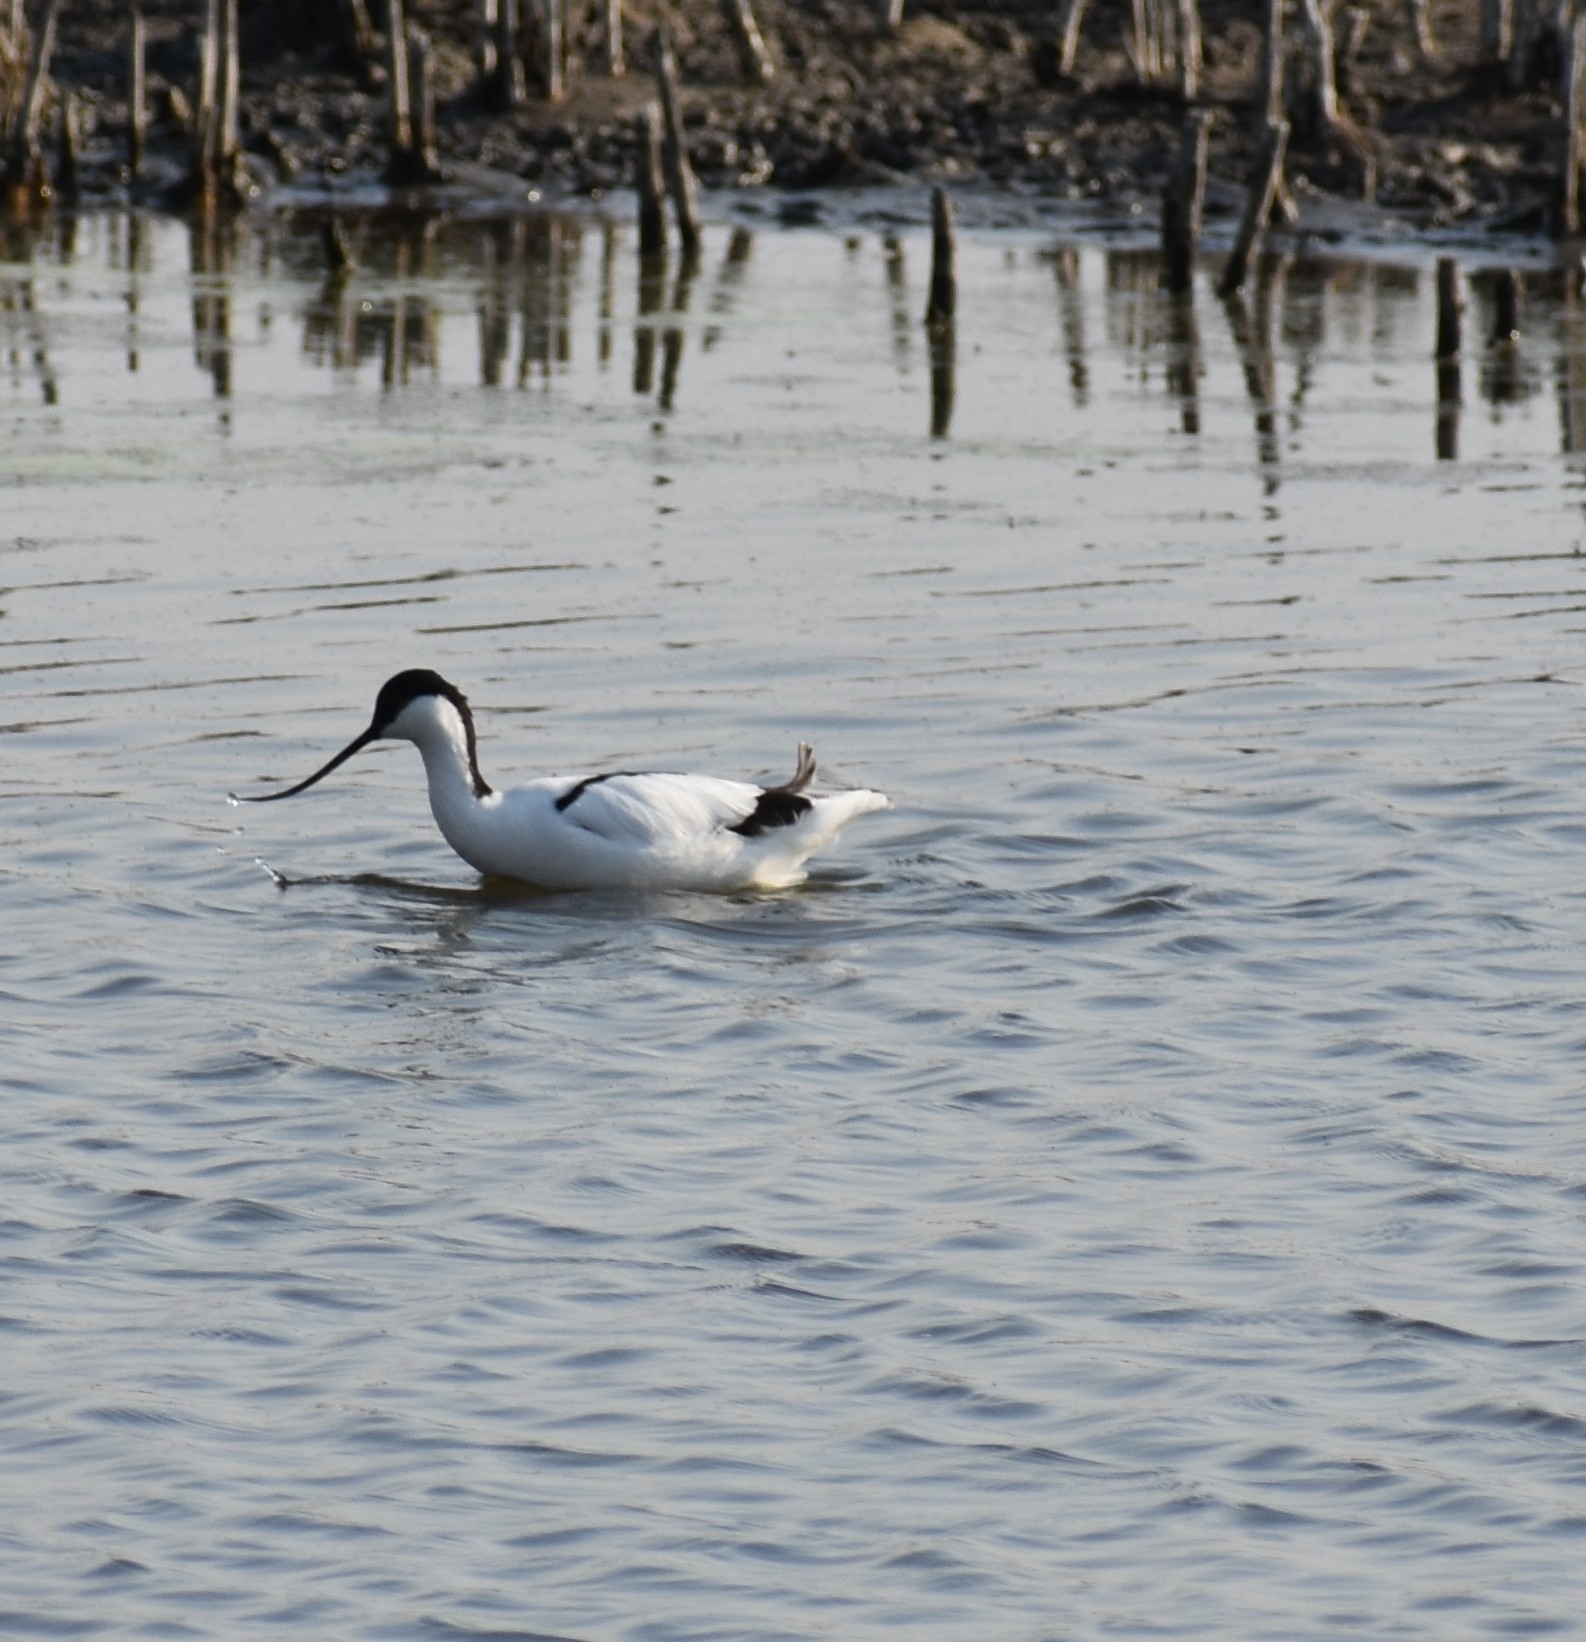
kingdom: Animalia
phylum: Chordata
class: Aves
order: Charadriiformes
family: Recurvirostridae
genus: Recurvirostra
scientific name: Recurvirostra avosetta
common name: Pied avocet
